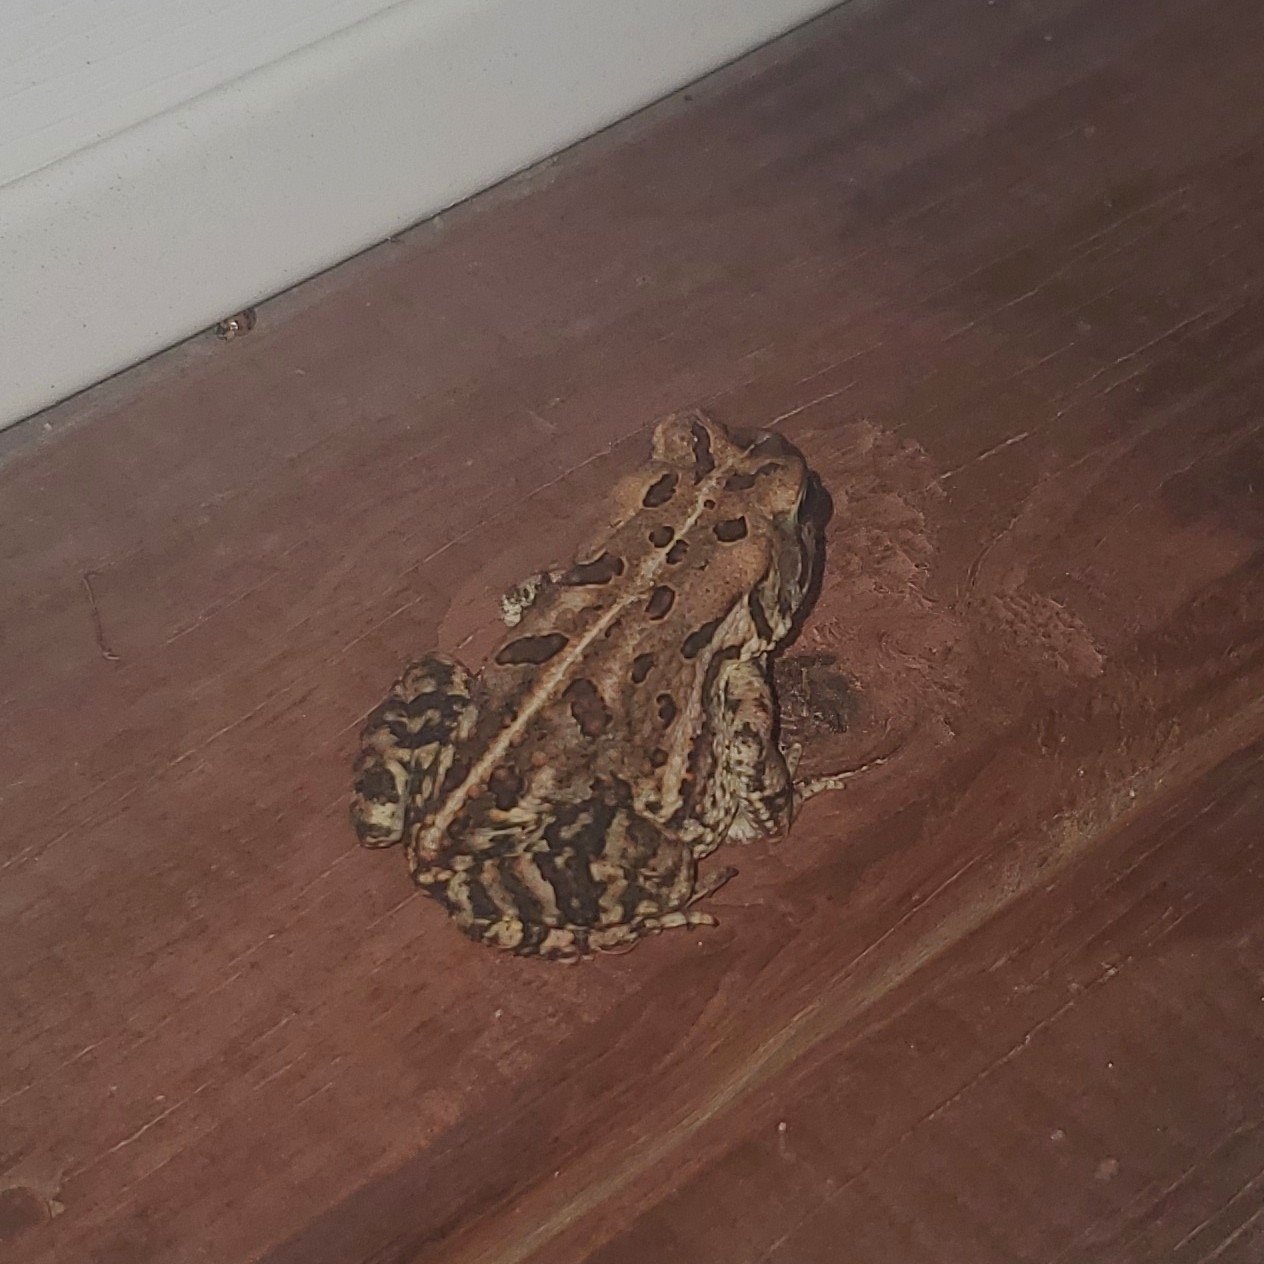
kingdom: Animalia
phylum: Chordata
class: Amphibia
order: Anura
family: Bufonidae
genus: Anaxyrus
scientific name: Anaxyrus fowleri
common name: Fowler's toad
